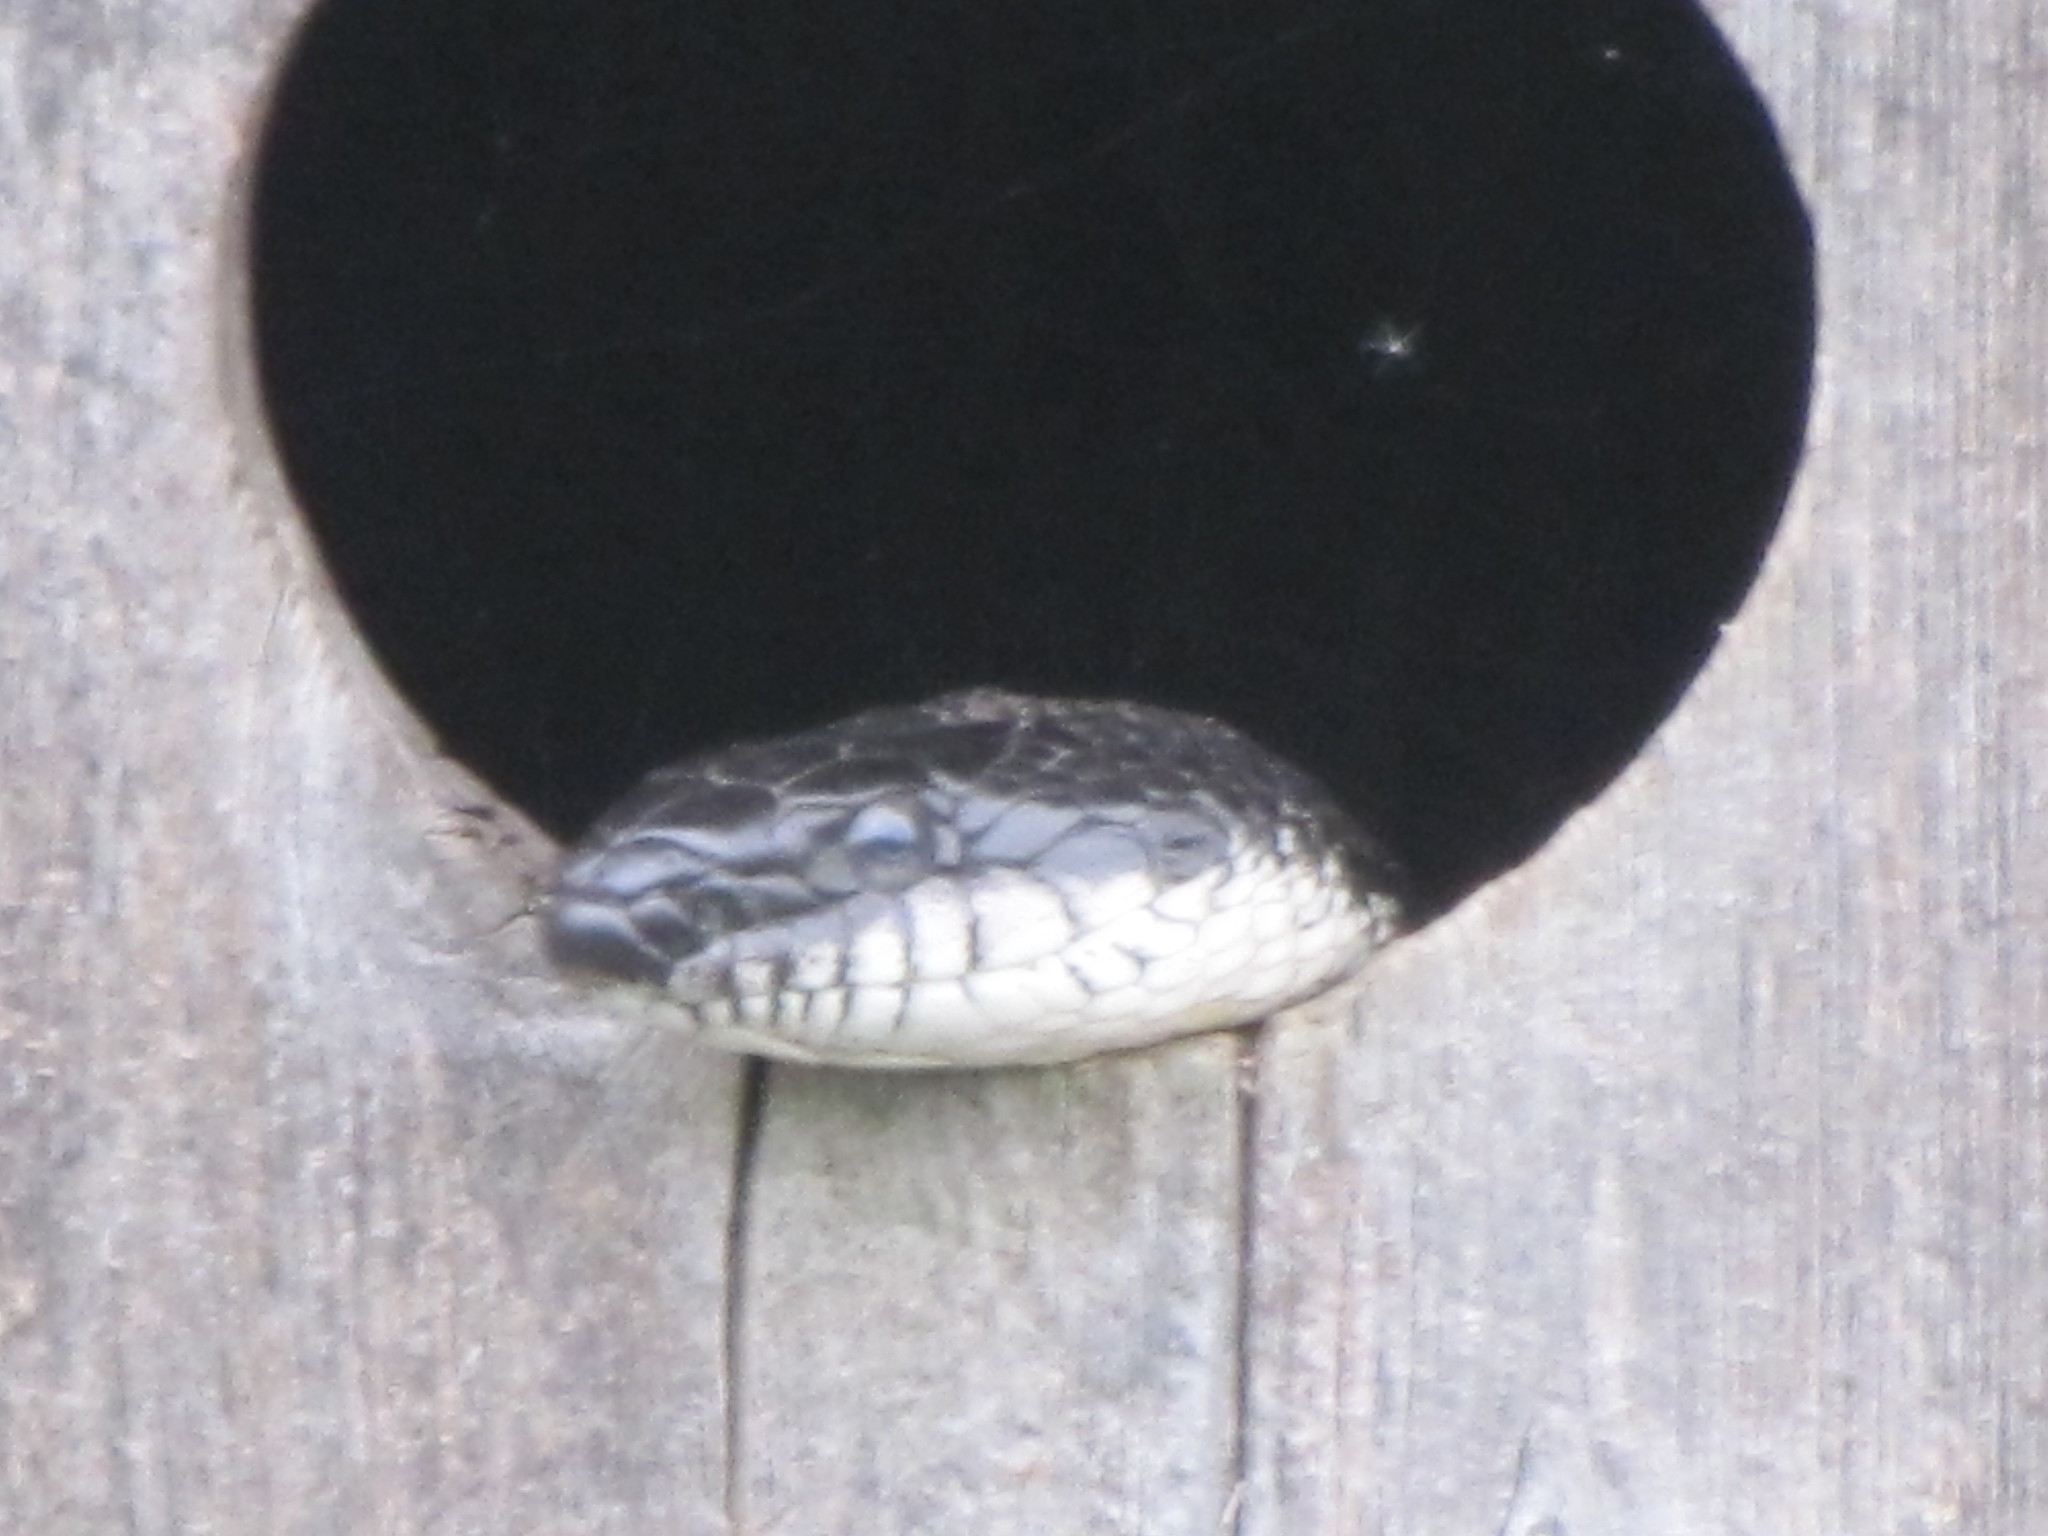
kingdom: Animalia
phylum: Chordata
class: Squamata
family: Colubridae
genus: Pantherophis
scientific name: Pantherophis alleghaniensis
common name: Eastern rat snake
